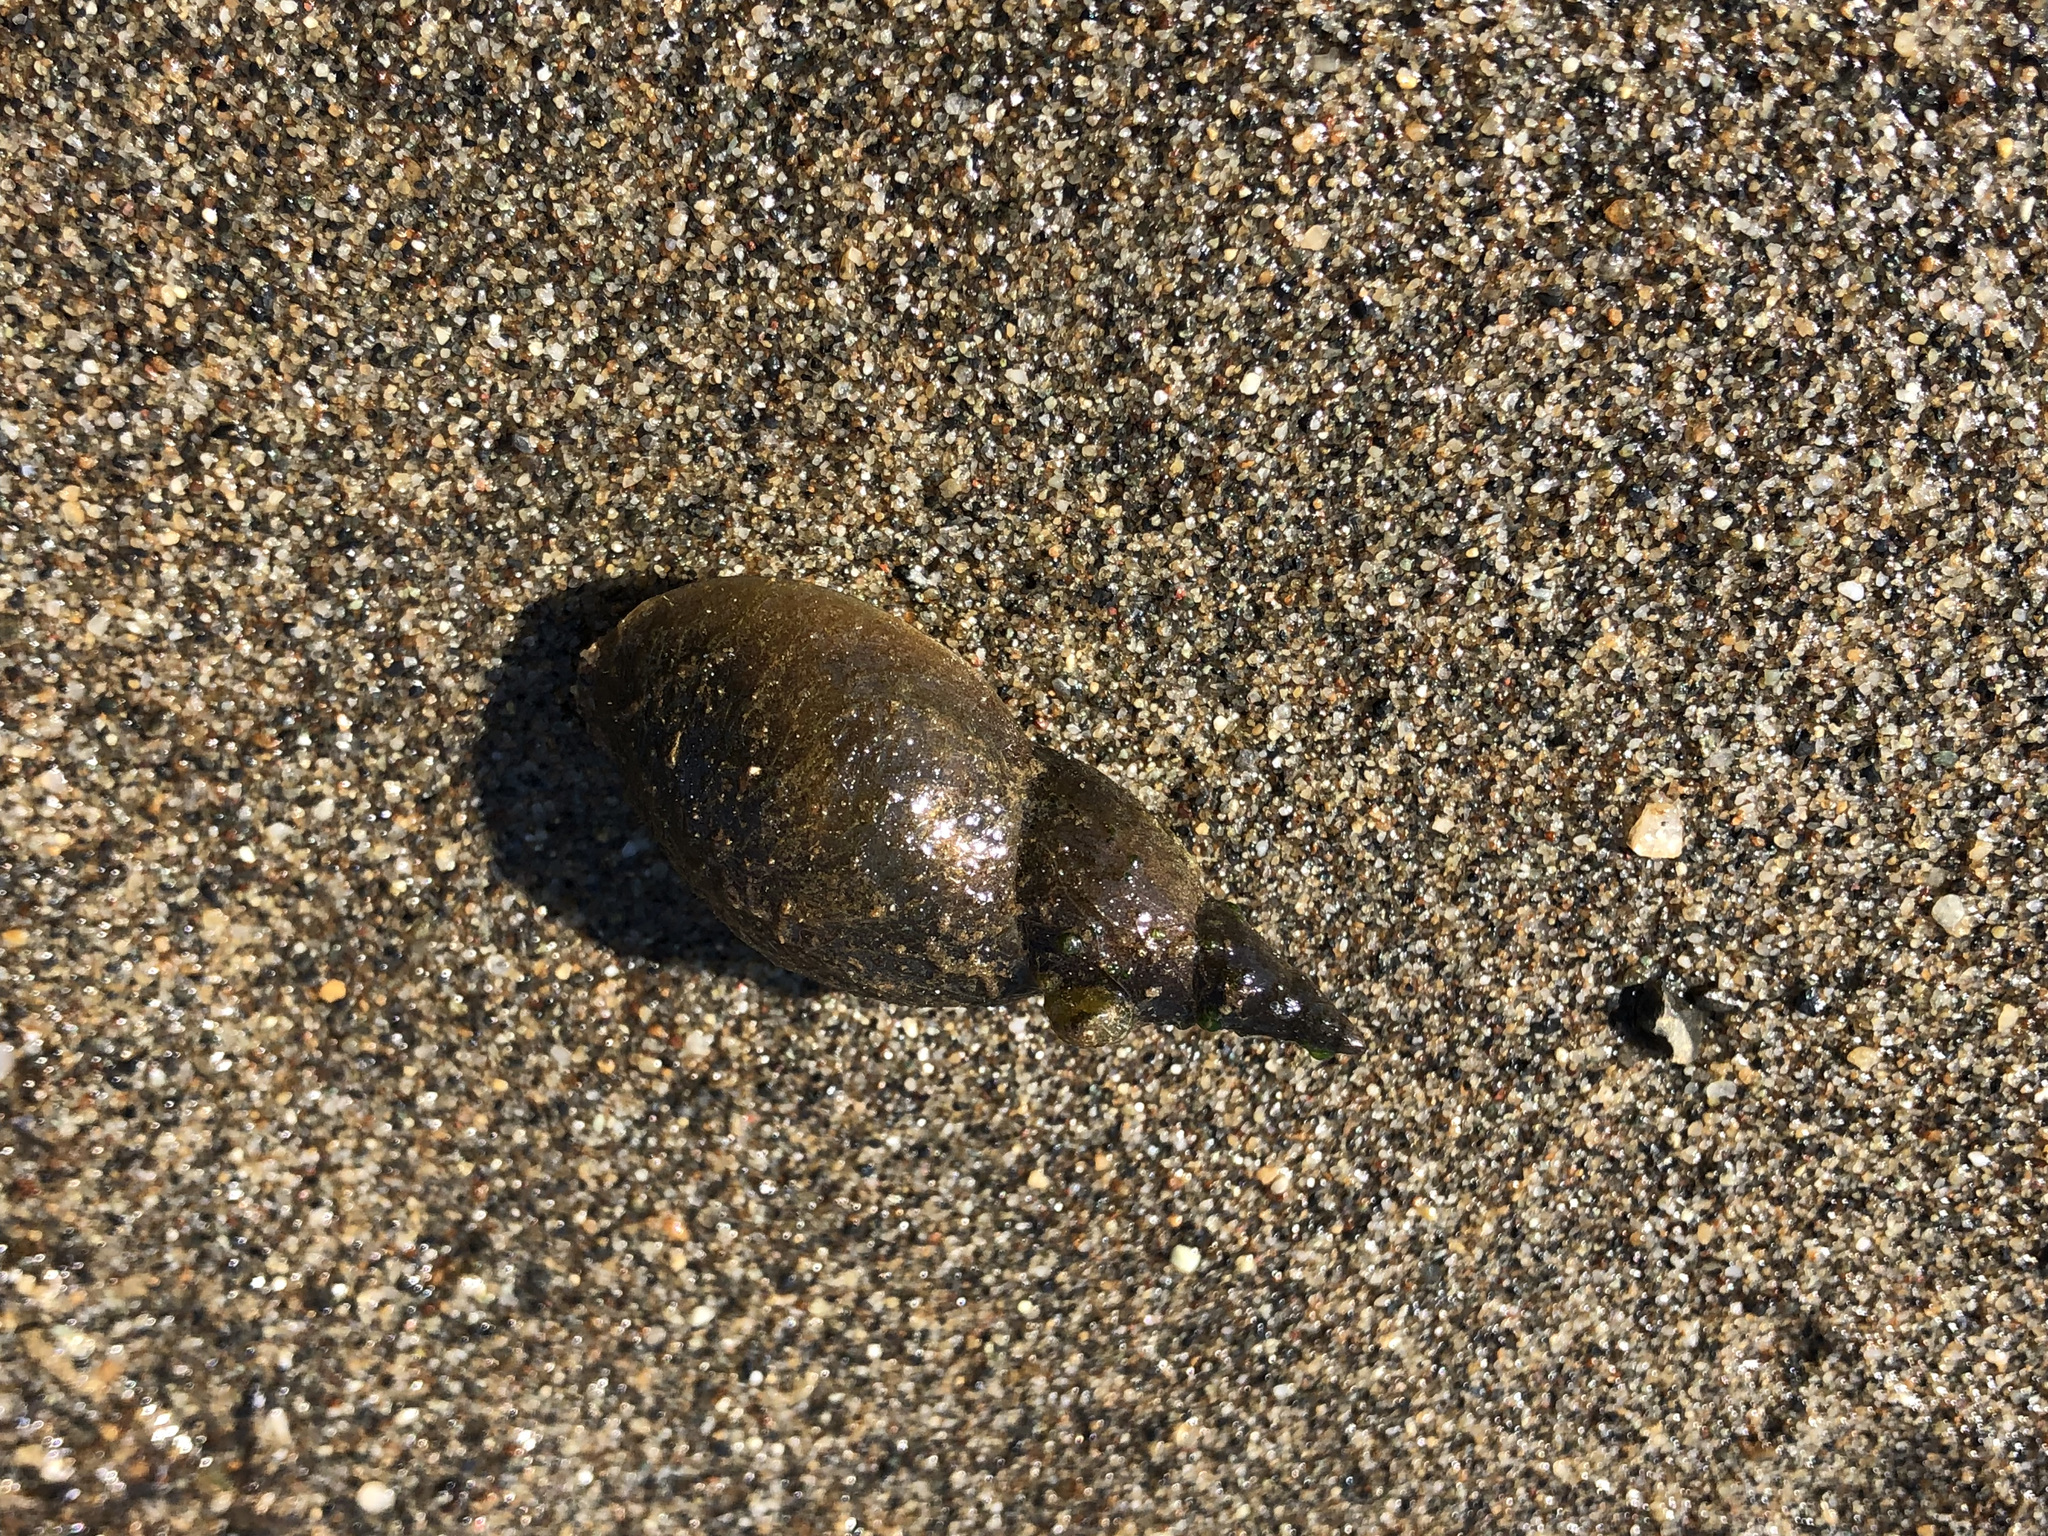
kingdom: Animalia
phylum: Mollusca
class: Gastropoda
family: Lymnaeidae
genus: Lymnaea
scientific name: Lymnaea stagnalis
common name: Great pond snail
